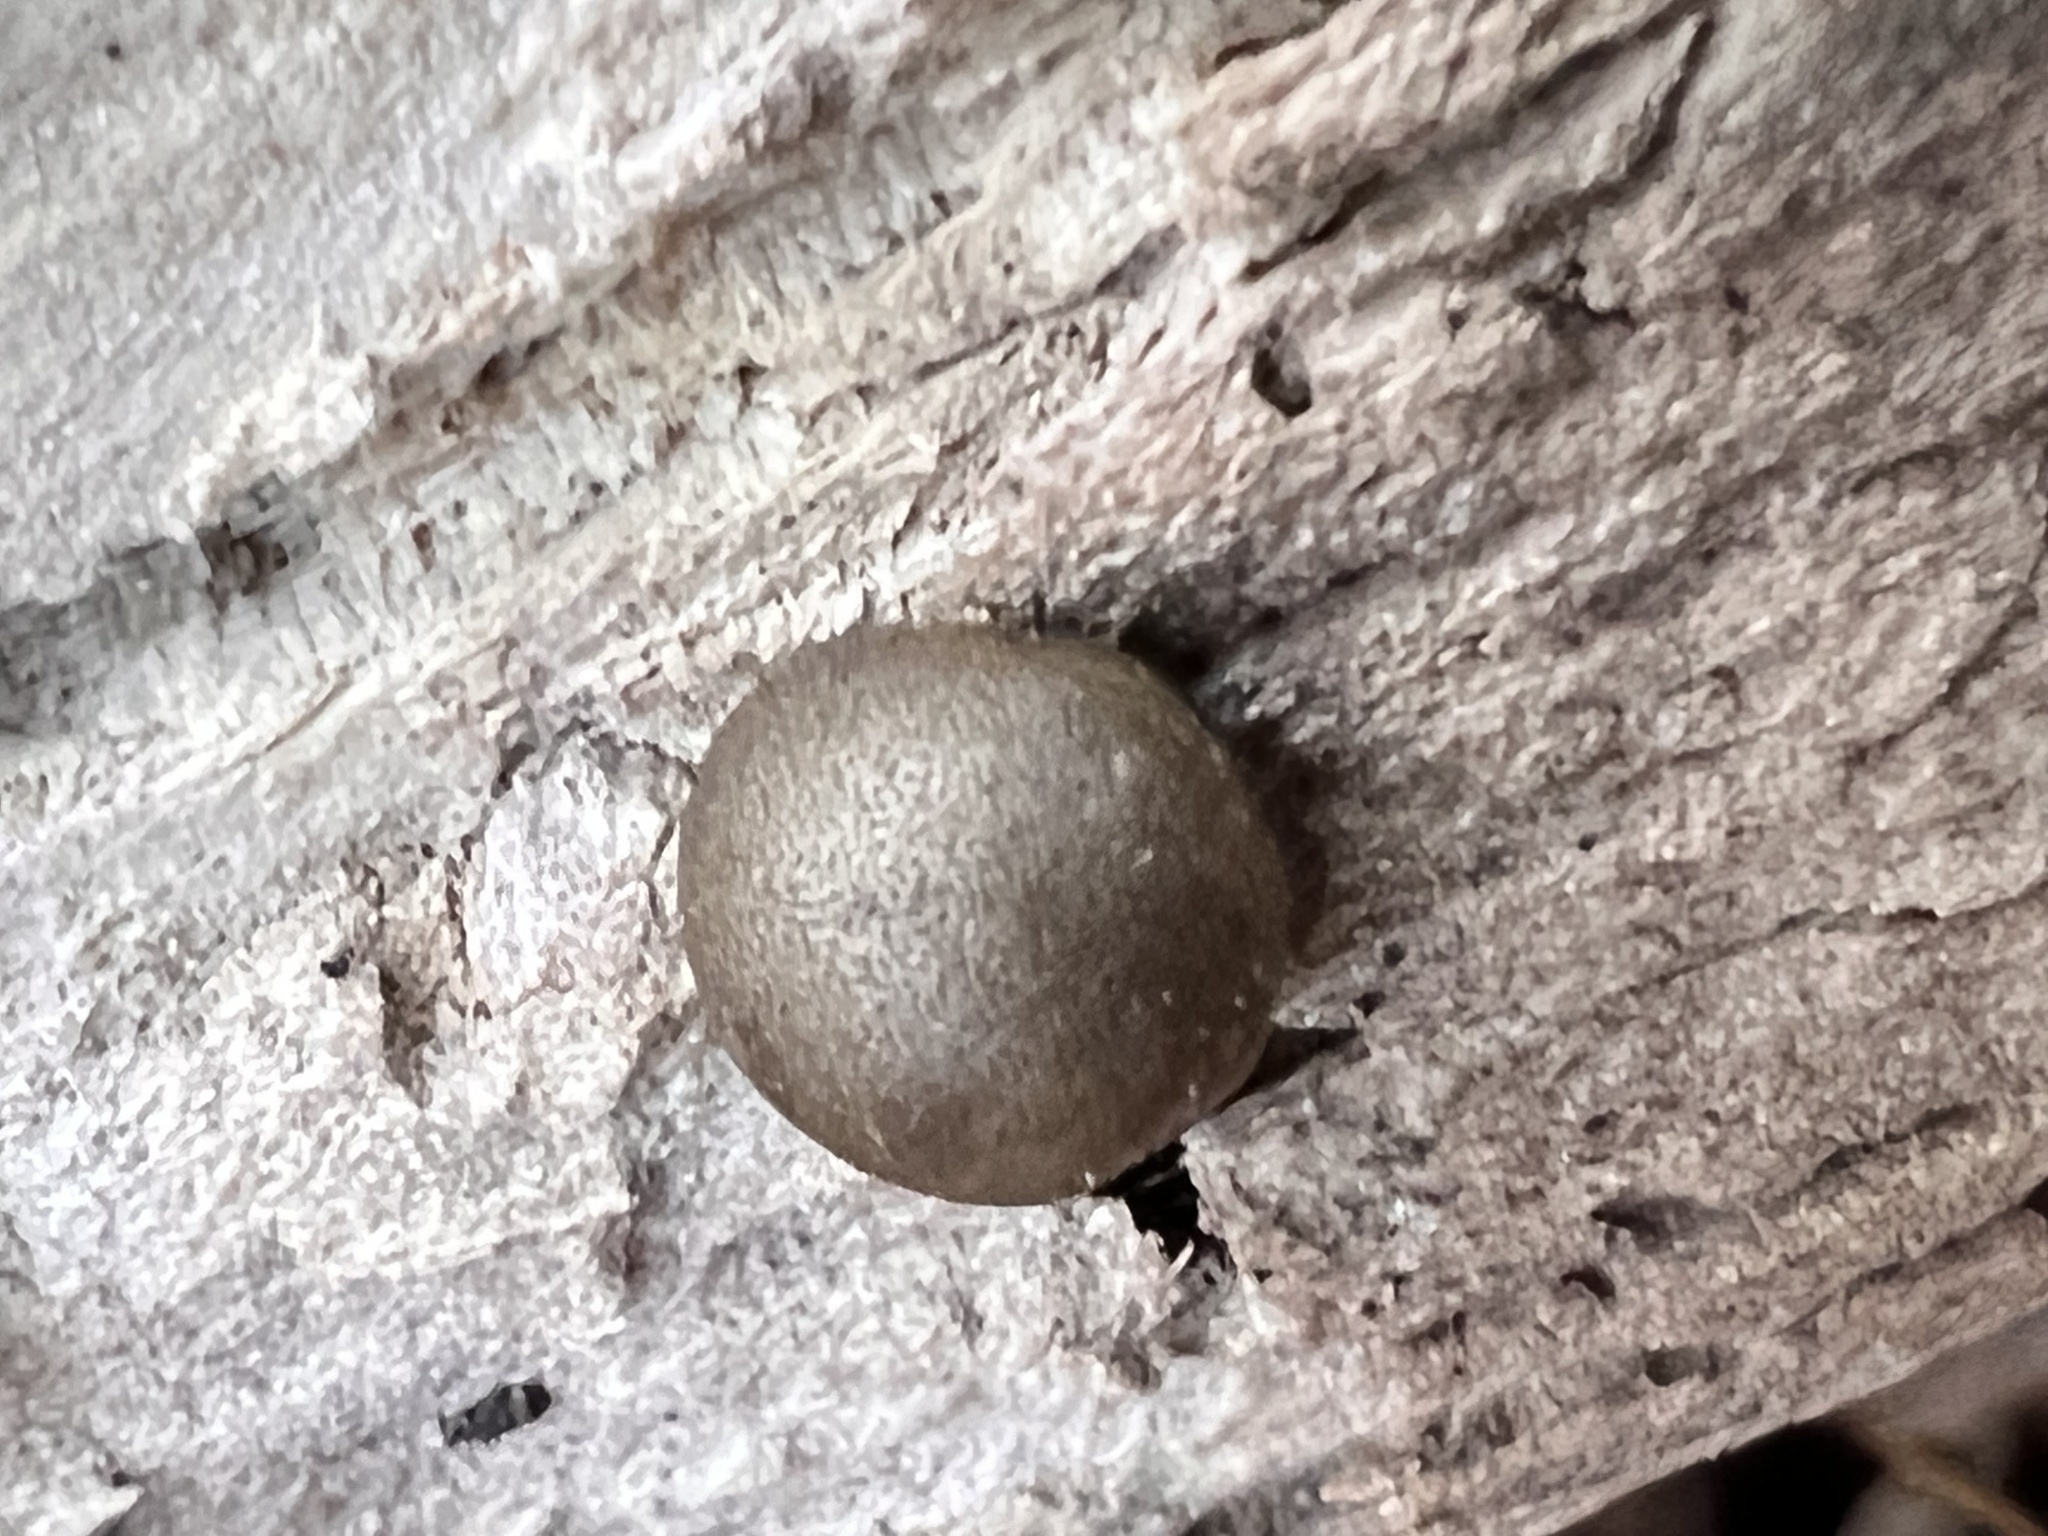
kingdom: Protozoa
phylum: Mycetozoa
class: Myxomycetes
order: Cribrariales
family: Tubiferaceae
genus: Lycogala
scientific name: Lycogala epidendrum
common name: Wolf's milk
